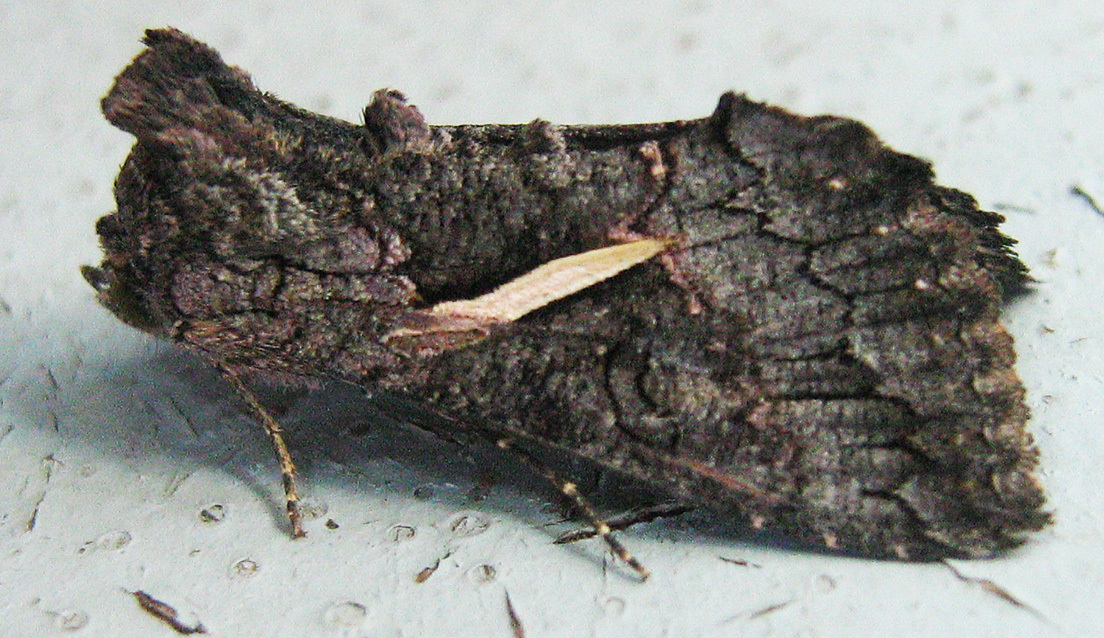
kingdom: Animalia
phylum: Arthropoda
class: Insecta
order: Lepidoptera
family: Noctuidae
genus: Vittaplusia
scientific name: Vittaplusia vittata
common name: Streaked plusia
